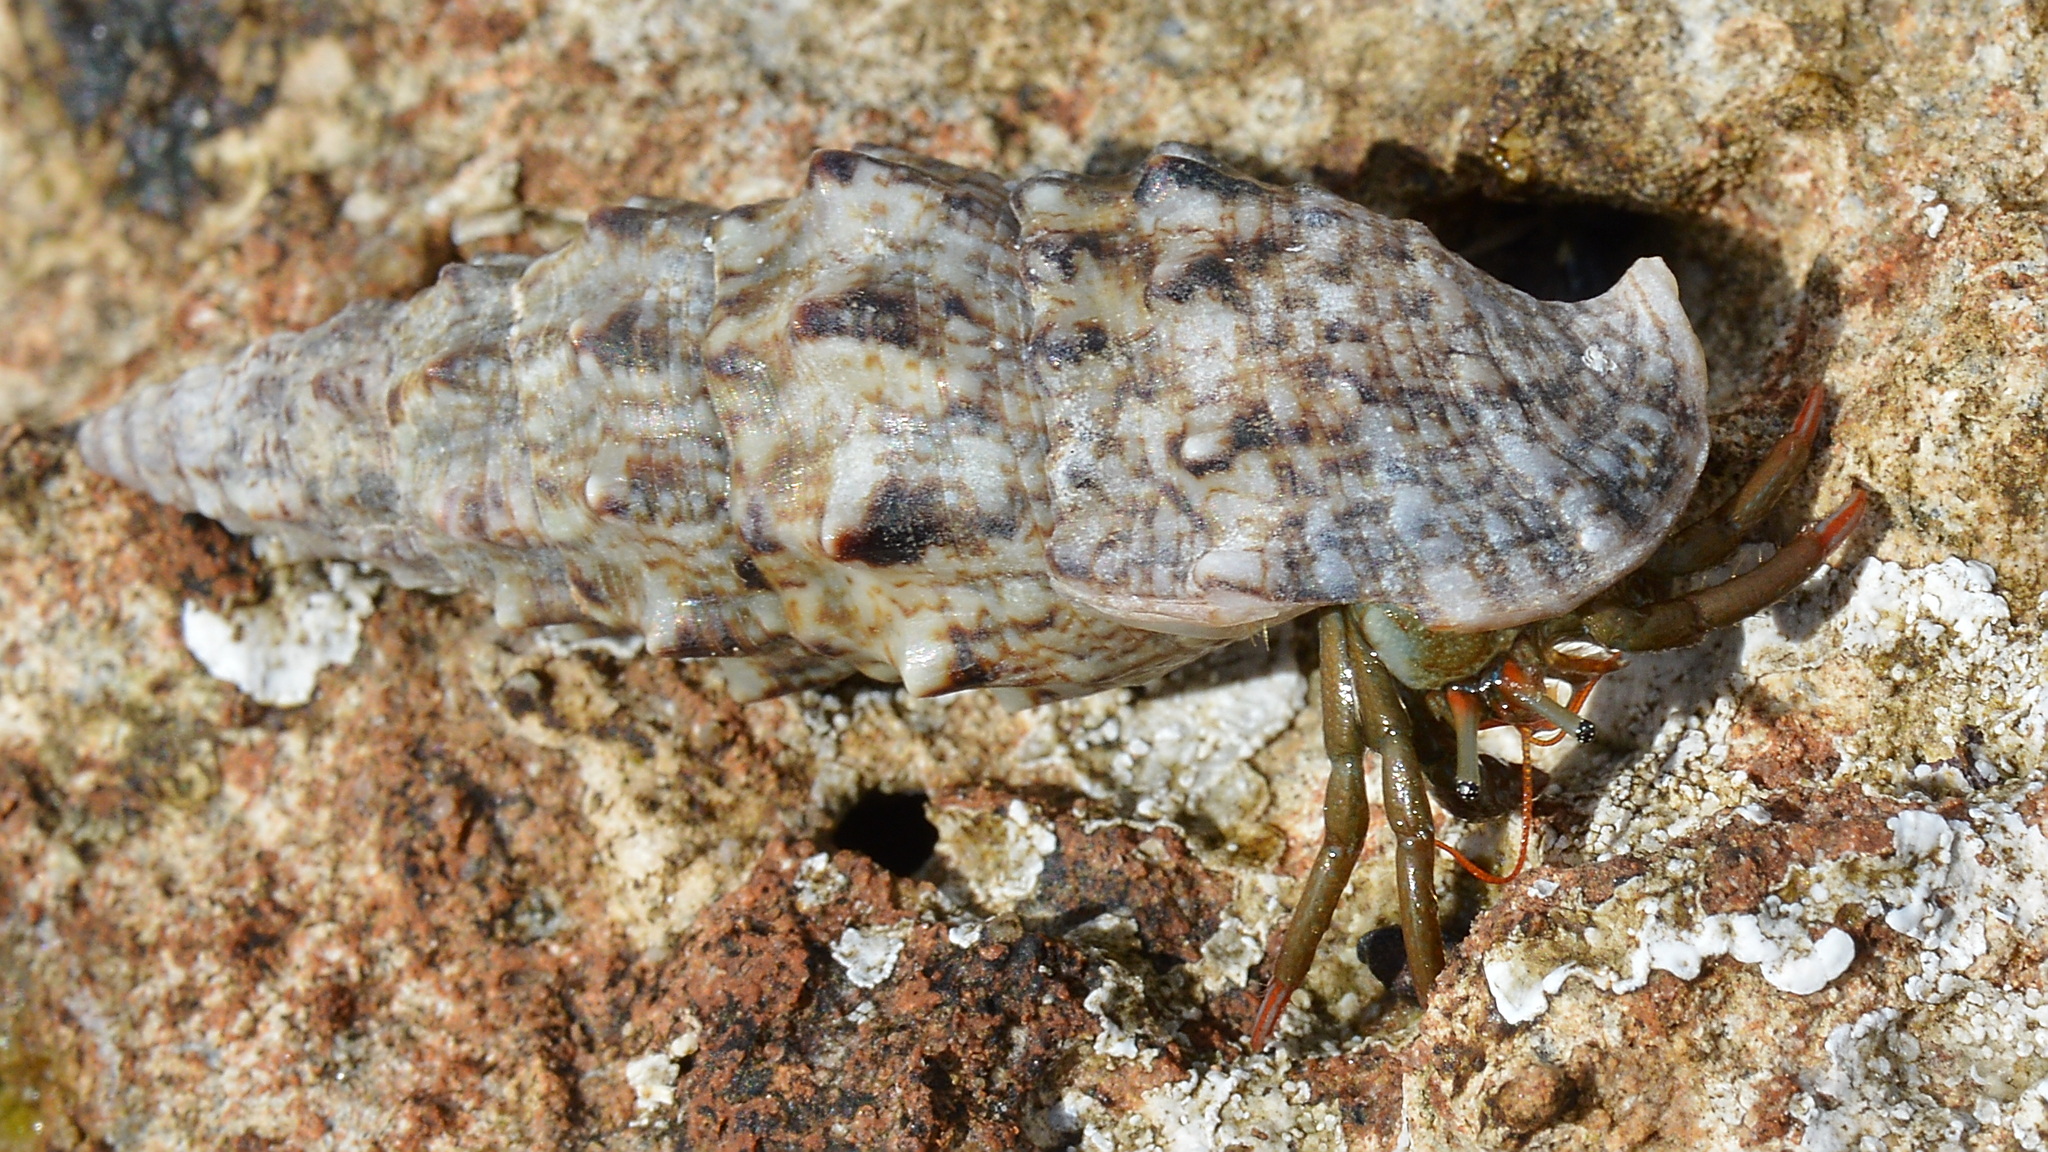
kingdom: Animalia
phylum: Arthropoda
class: Malacostraca
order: Decapoda
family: Diogenidae
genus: Clibanarius
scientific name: Clibanarius erythropus
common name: Hermit crab
